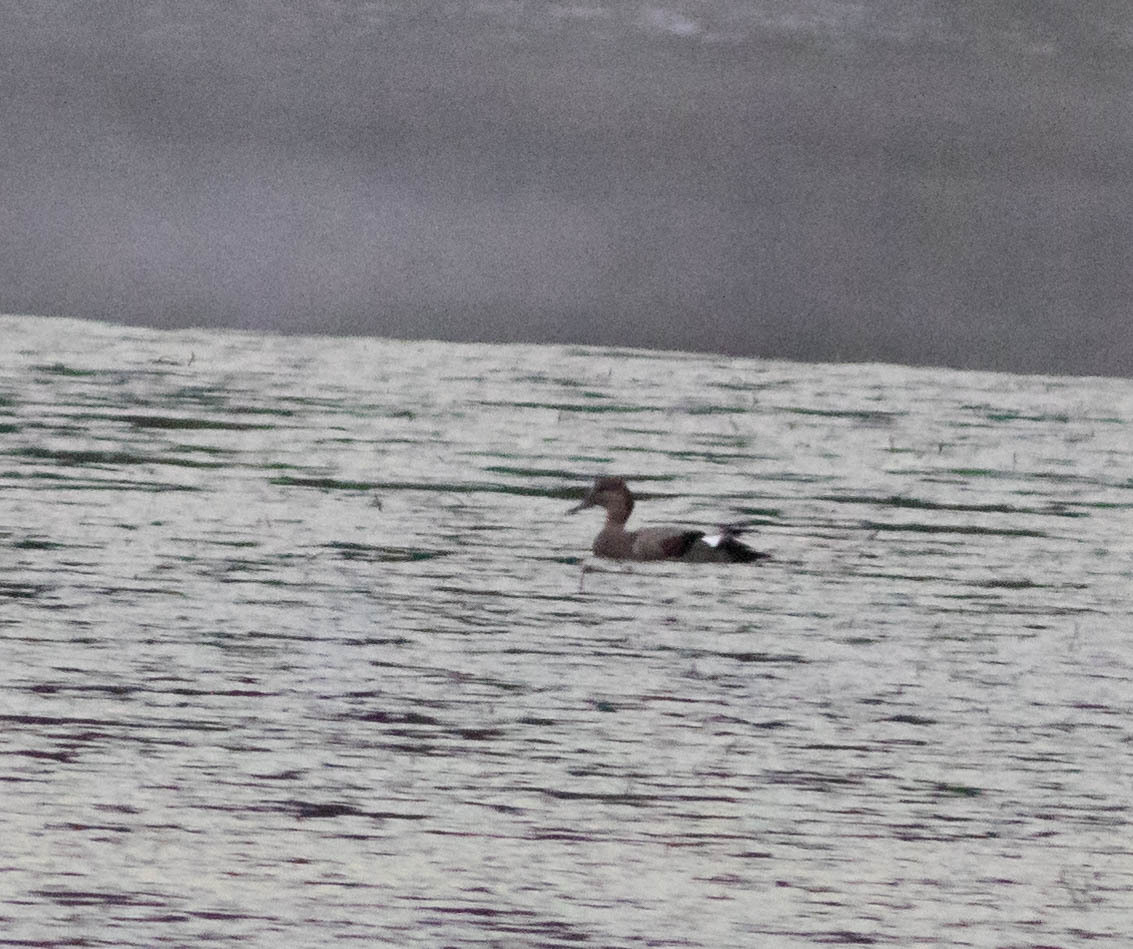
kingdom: Animalia
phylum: Chordata
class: Aves
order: Anseriformes
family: Anatidae
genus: Mareca
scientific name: Mareca strepera
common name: Gadwall
